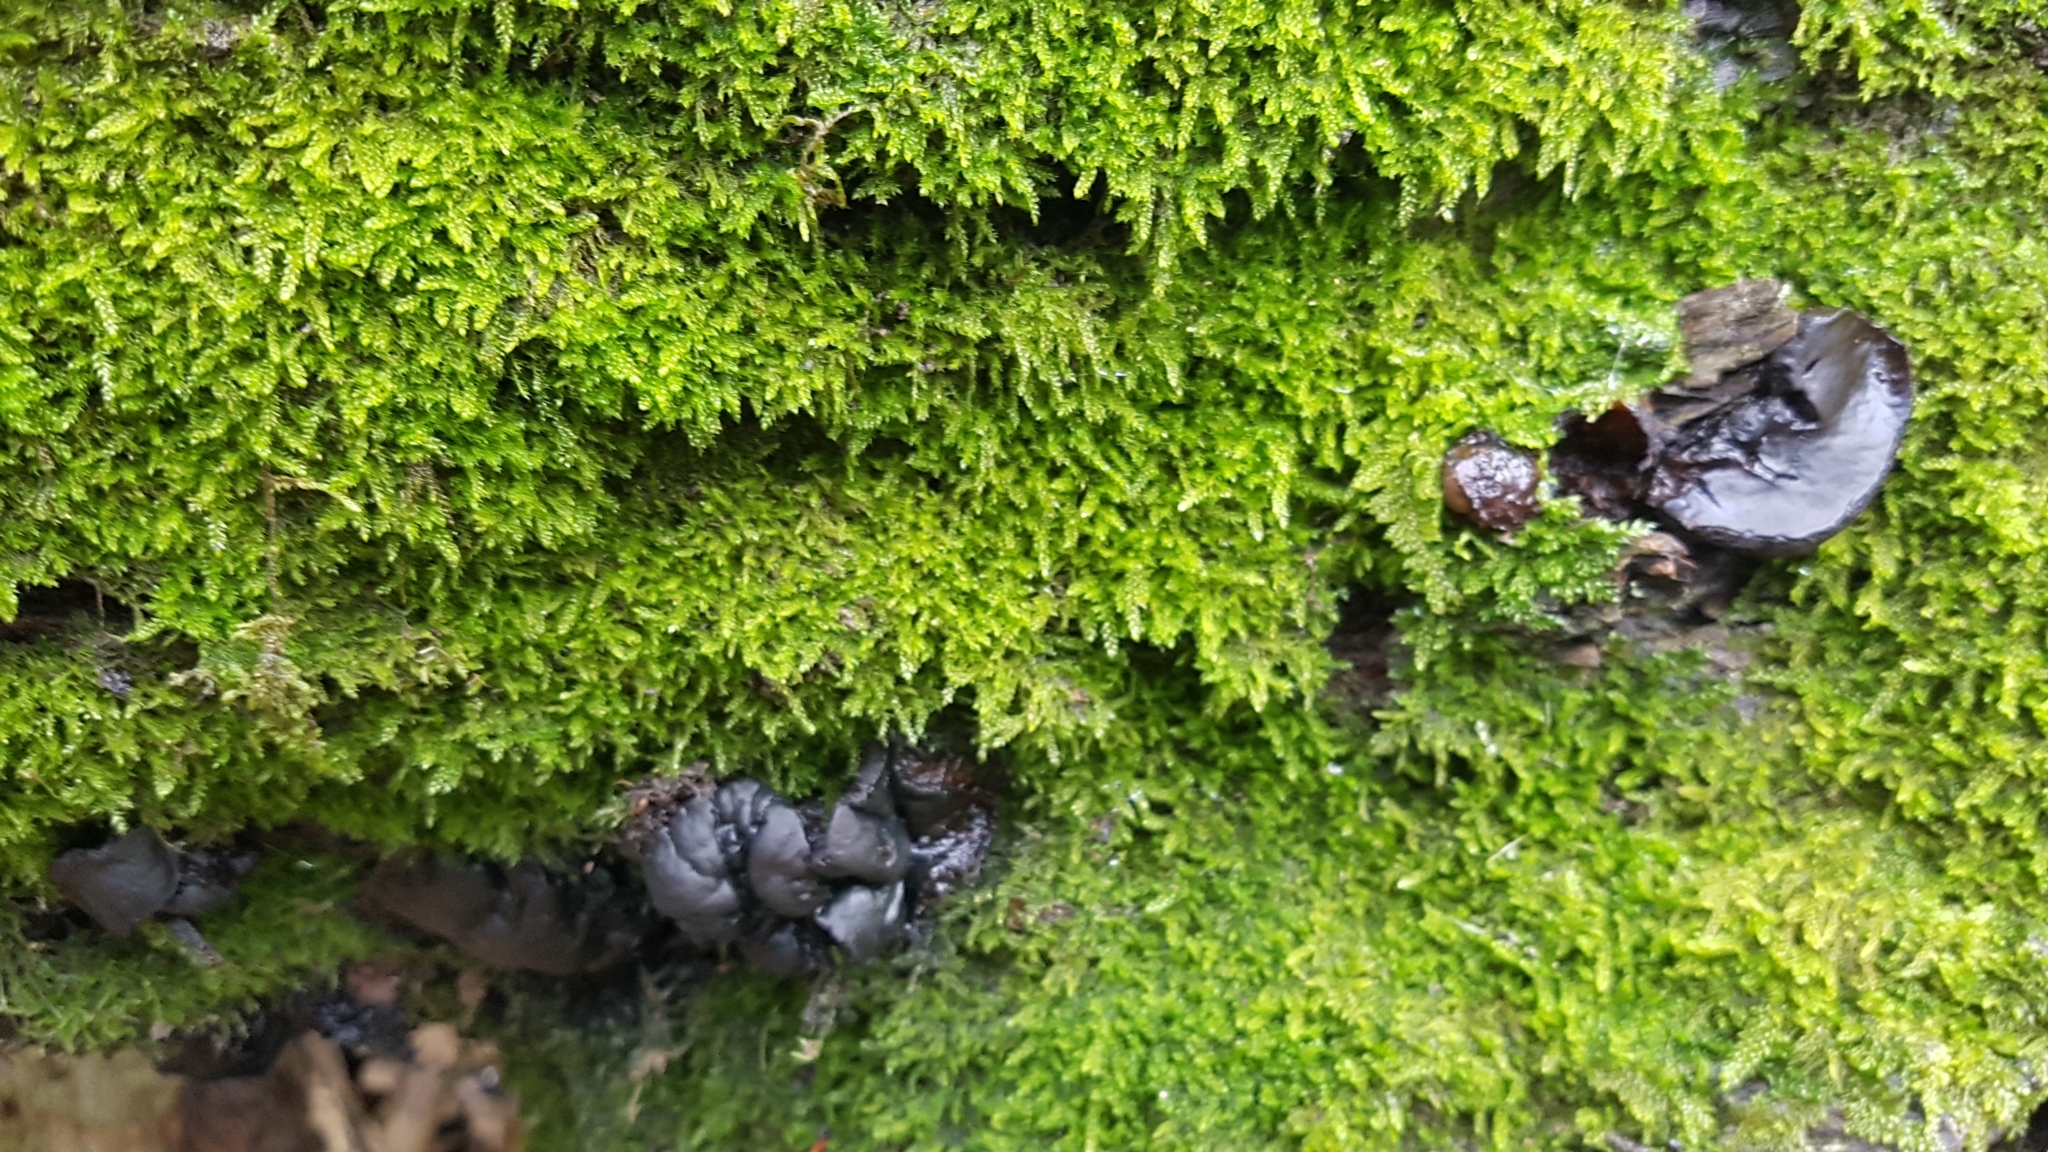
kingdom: Fungi
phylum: Ascomycota
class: Leotiomycetes
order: Phacidiales
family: Phacidiaceae
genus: Bulgaria
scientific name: Bulgaria inquinans
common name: Black bulgar
